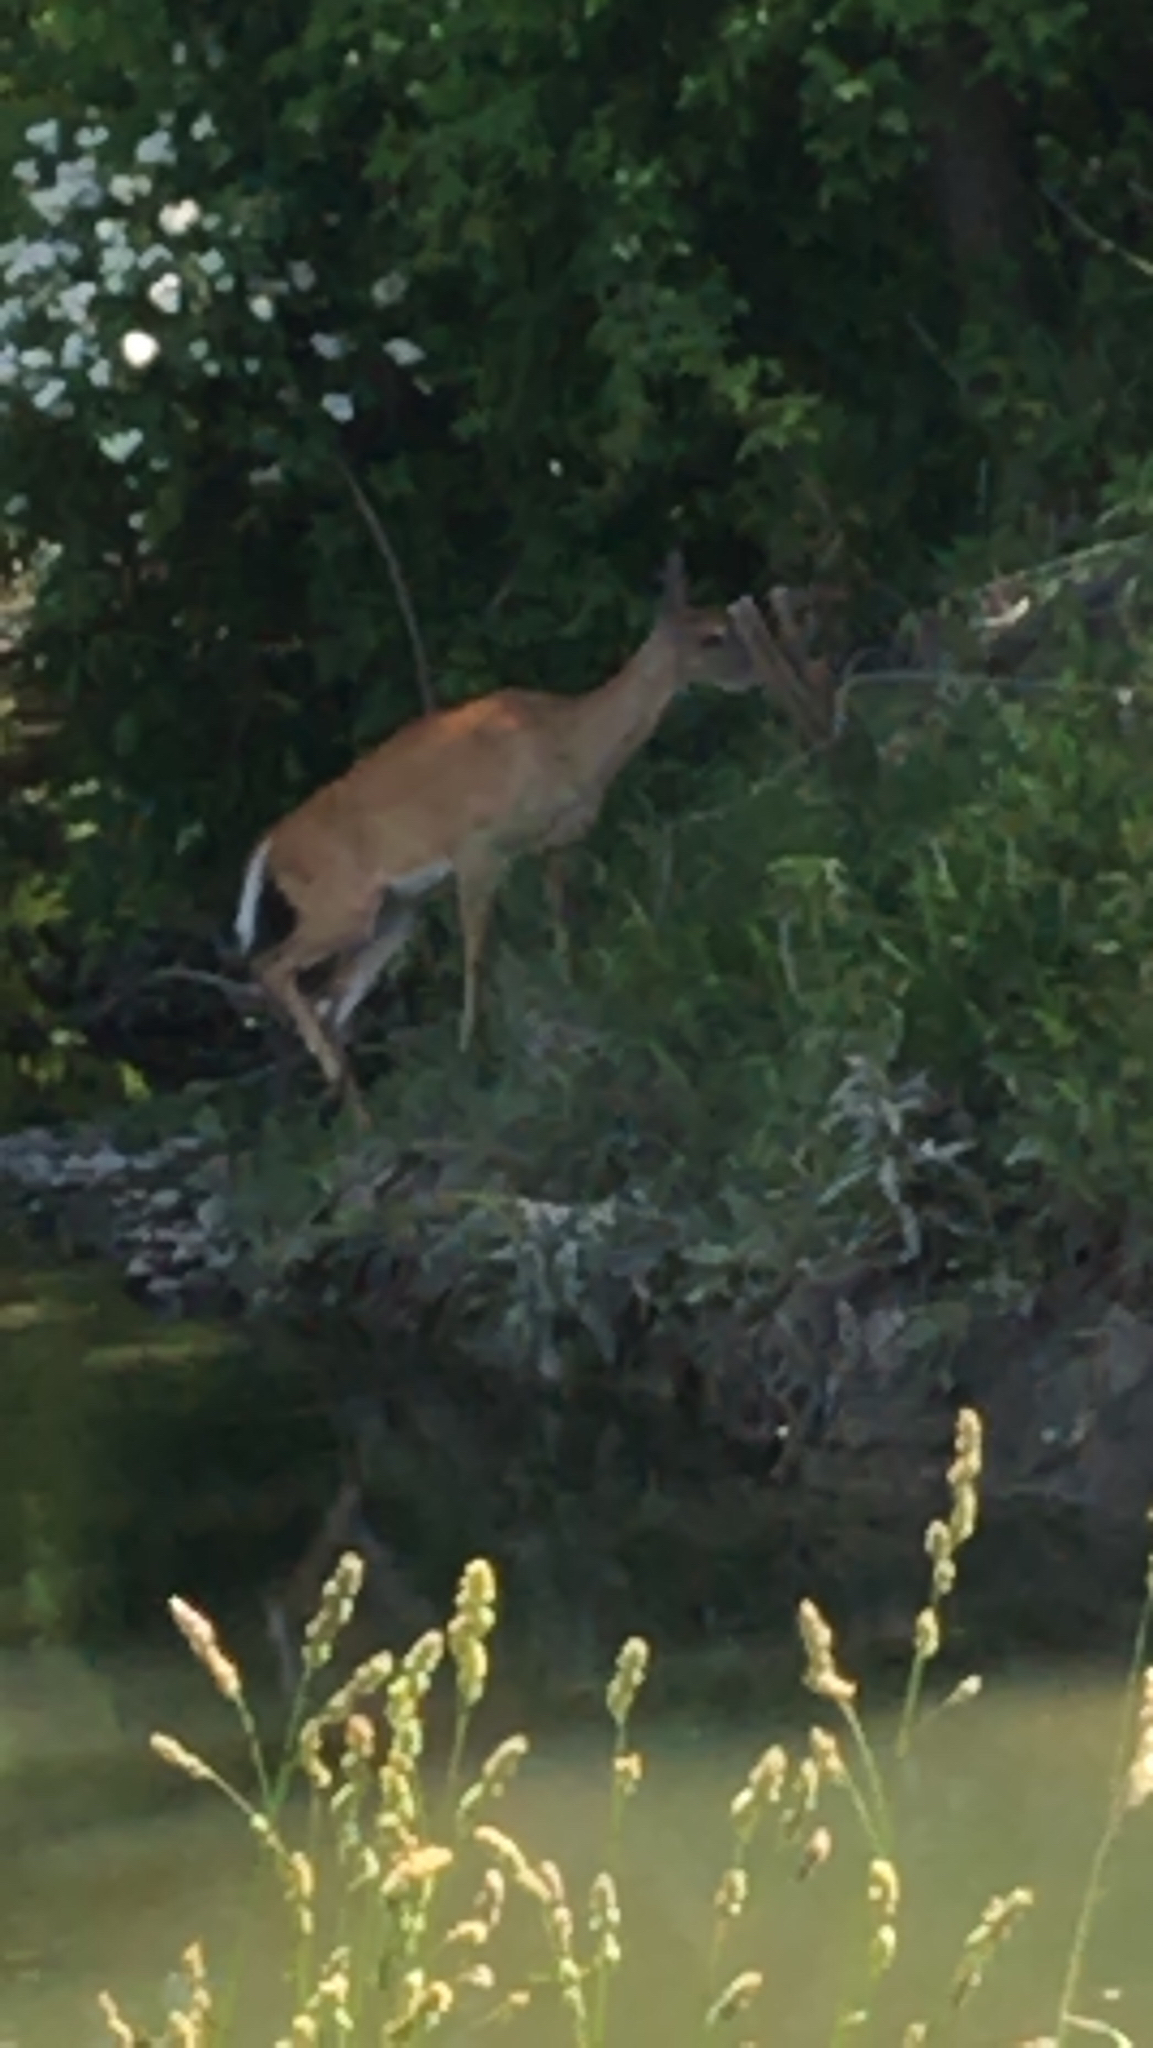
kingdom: Animalia
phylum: Chordata
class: Mammalia
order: Artiodactyla
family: Cervidae
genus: Odocoileus
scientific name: Odocoileus virginianus
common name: White-tailed deer
